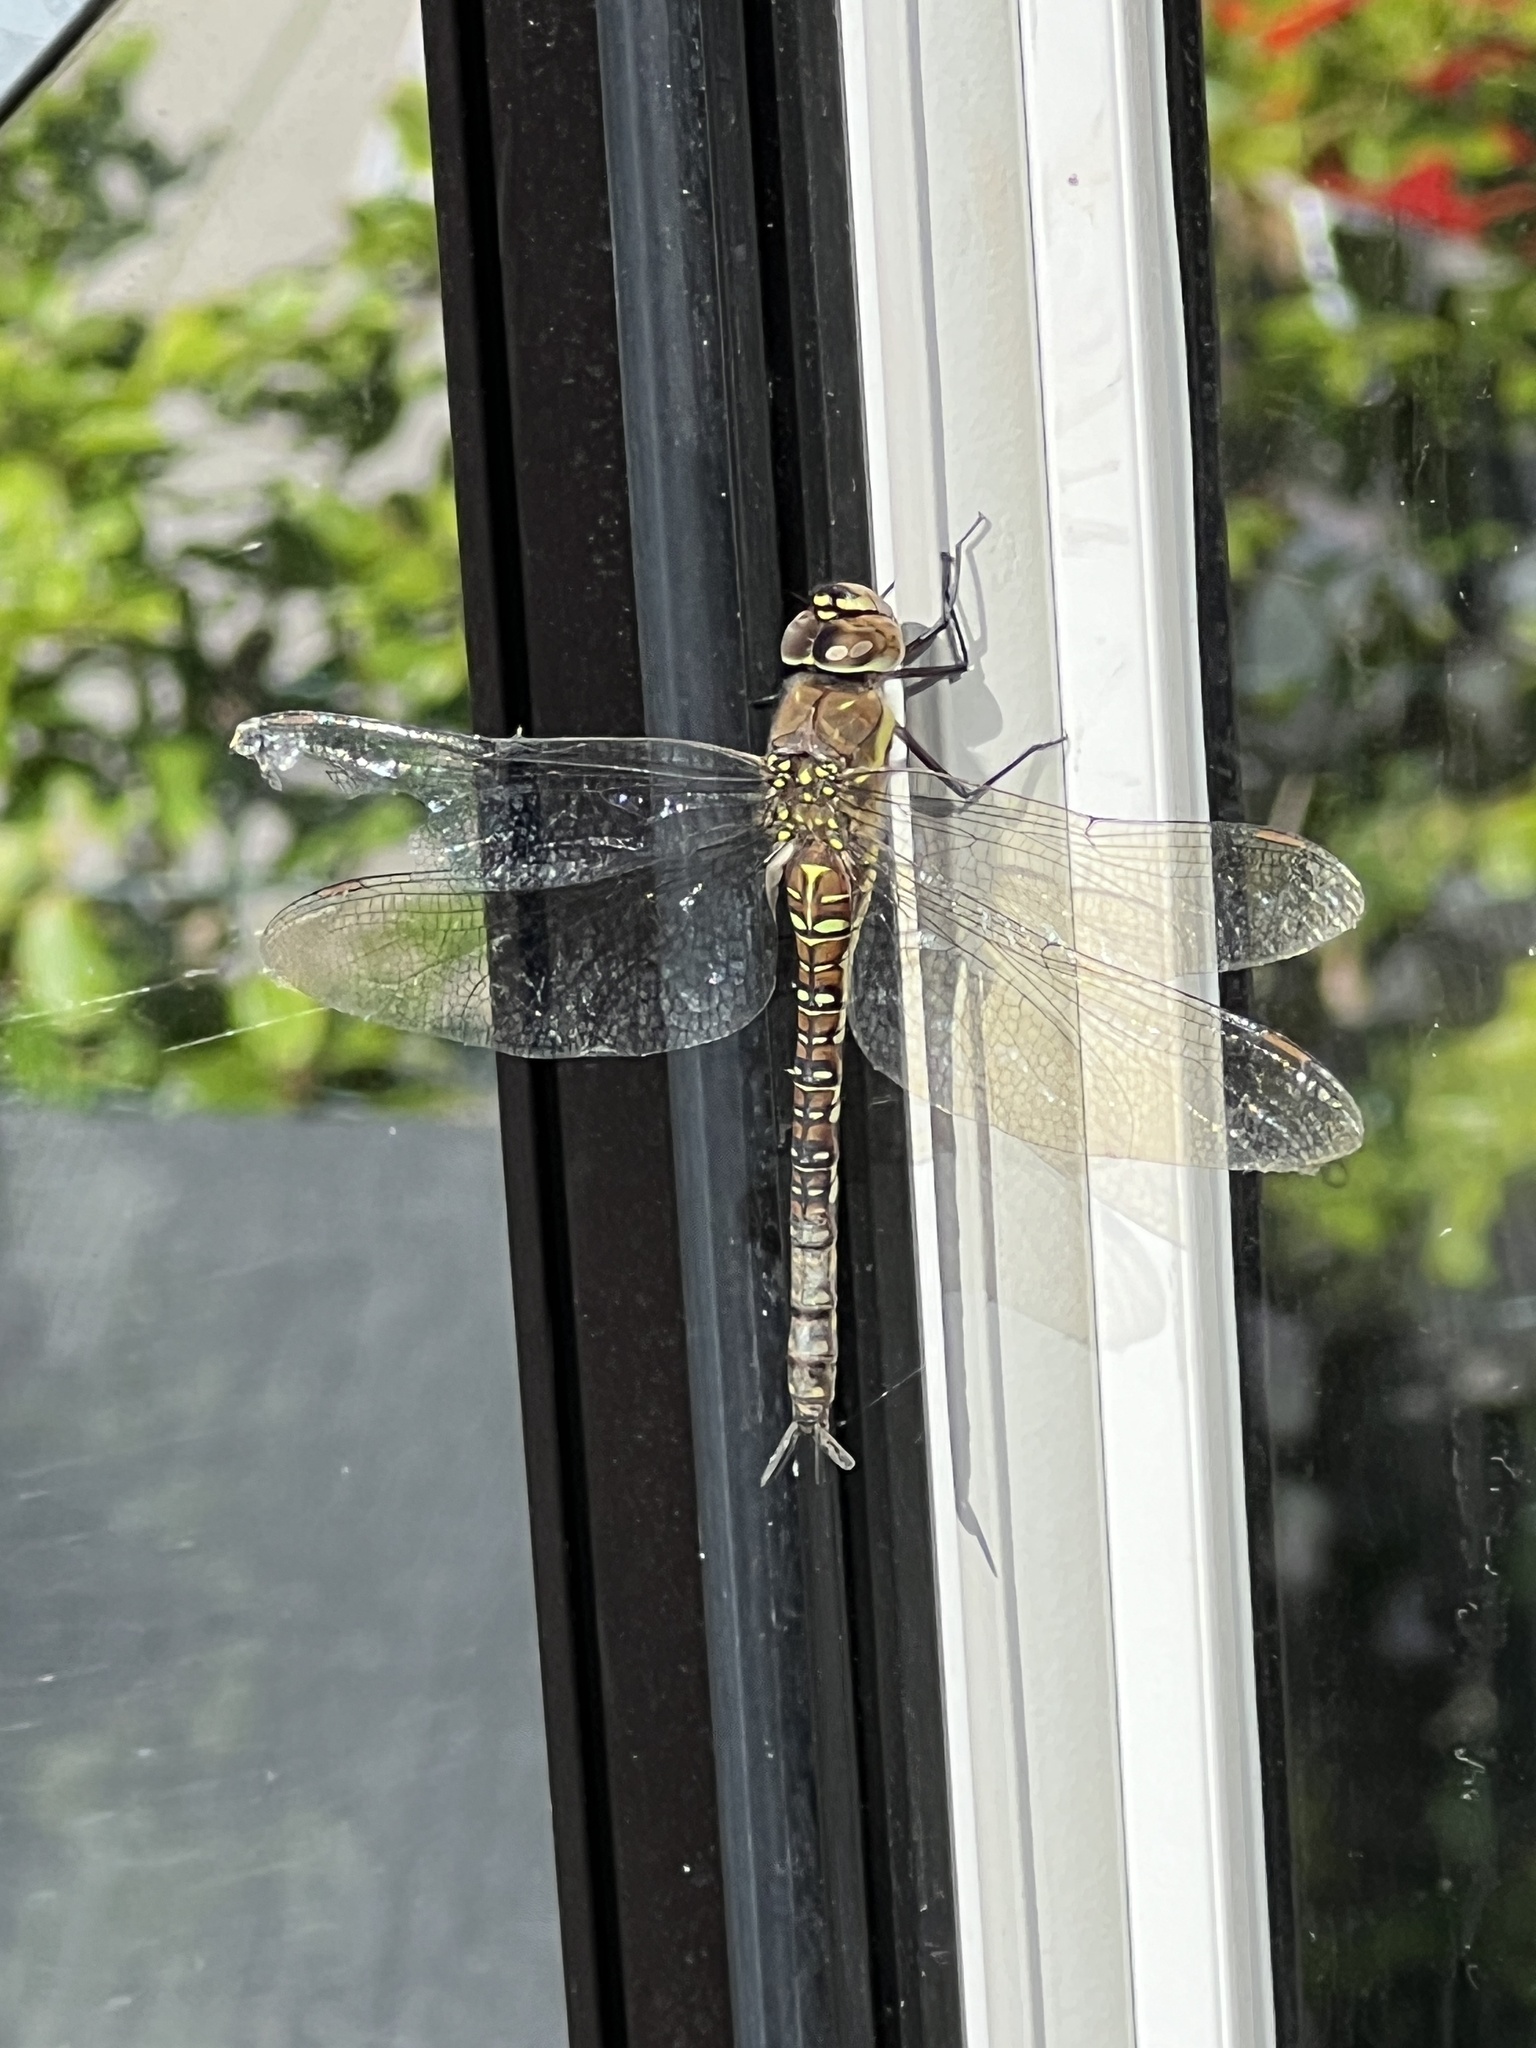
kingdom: Animalia
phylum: Arthropoda
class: Insecta
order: Odonata
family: Aeshnidae
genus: Aeshna
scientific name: Aeshna mixta
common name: Migrant hawker
